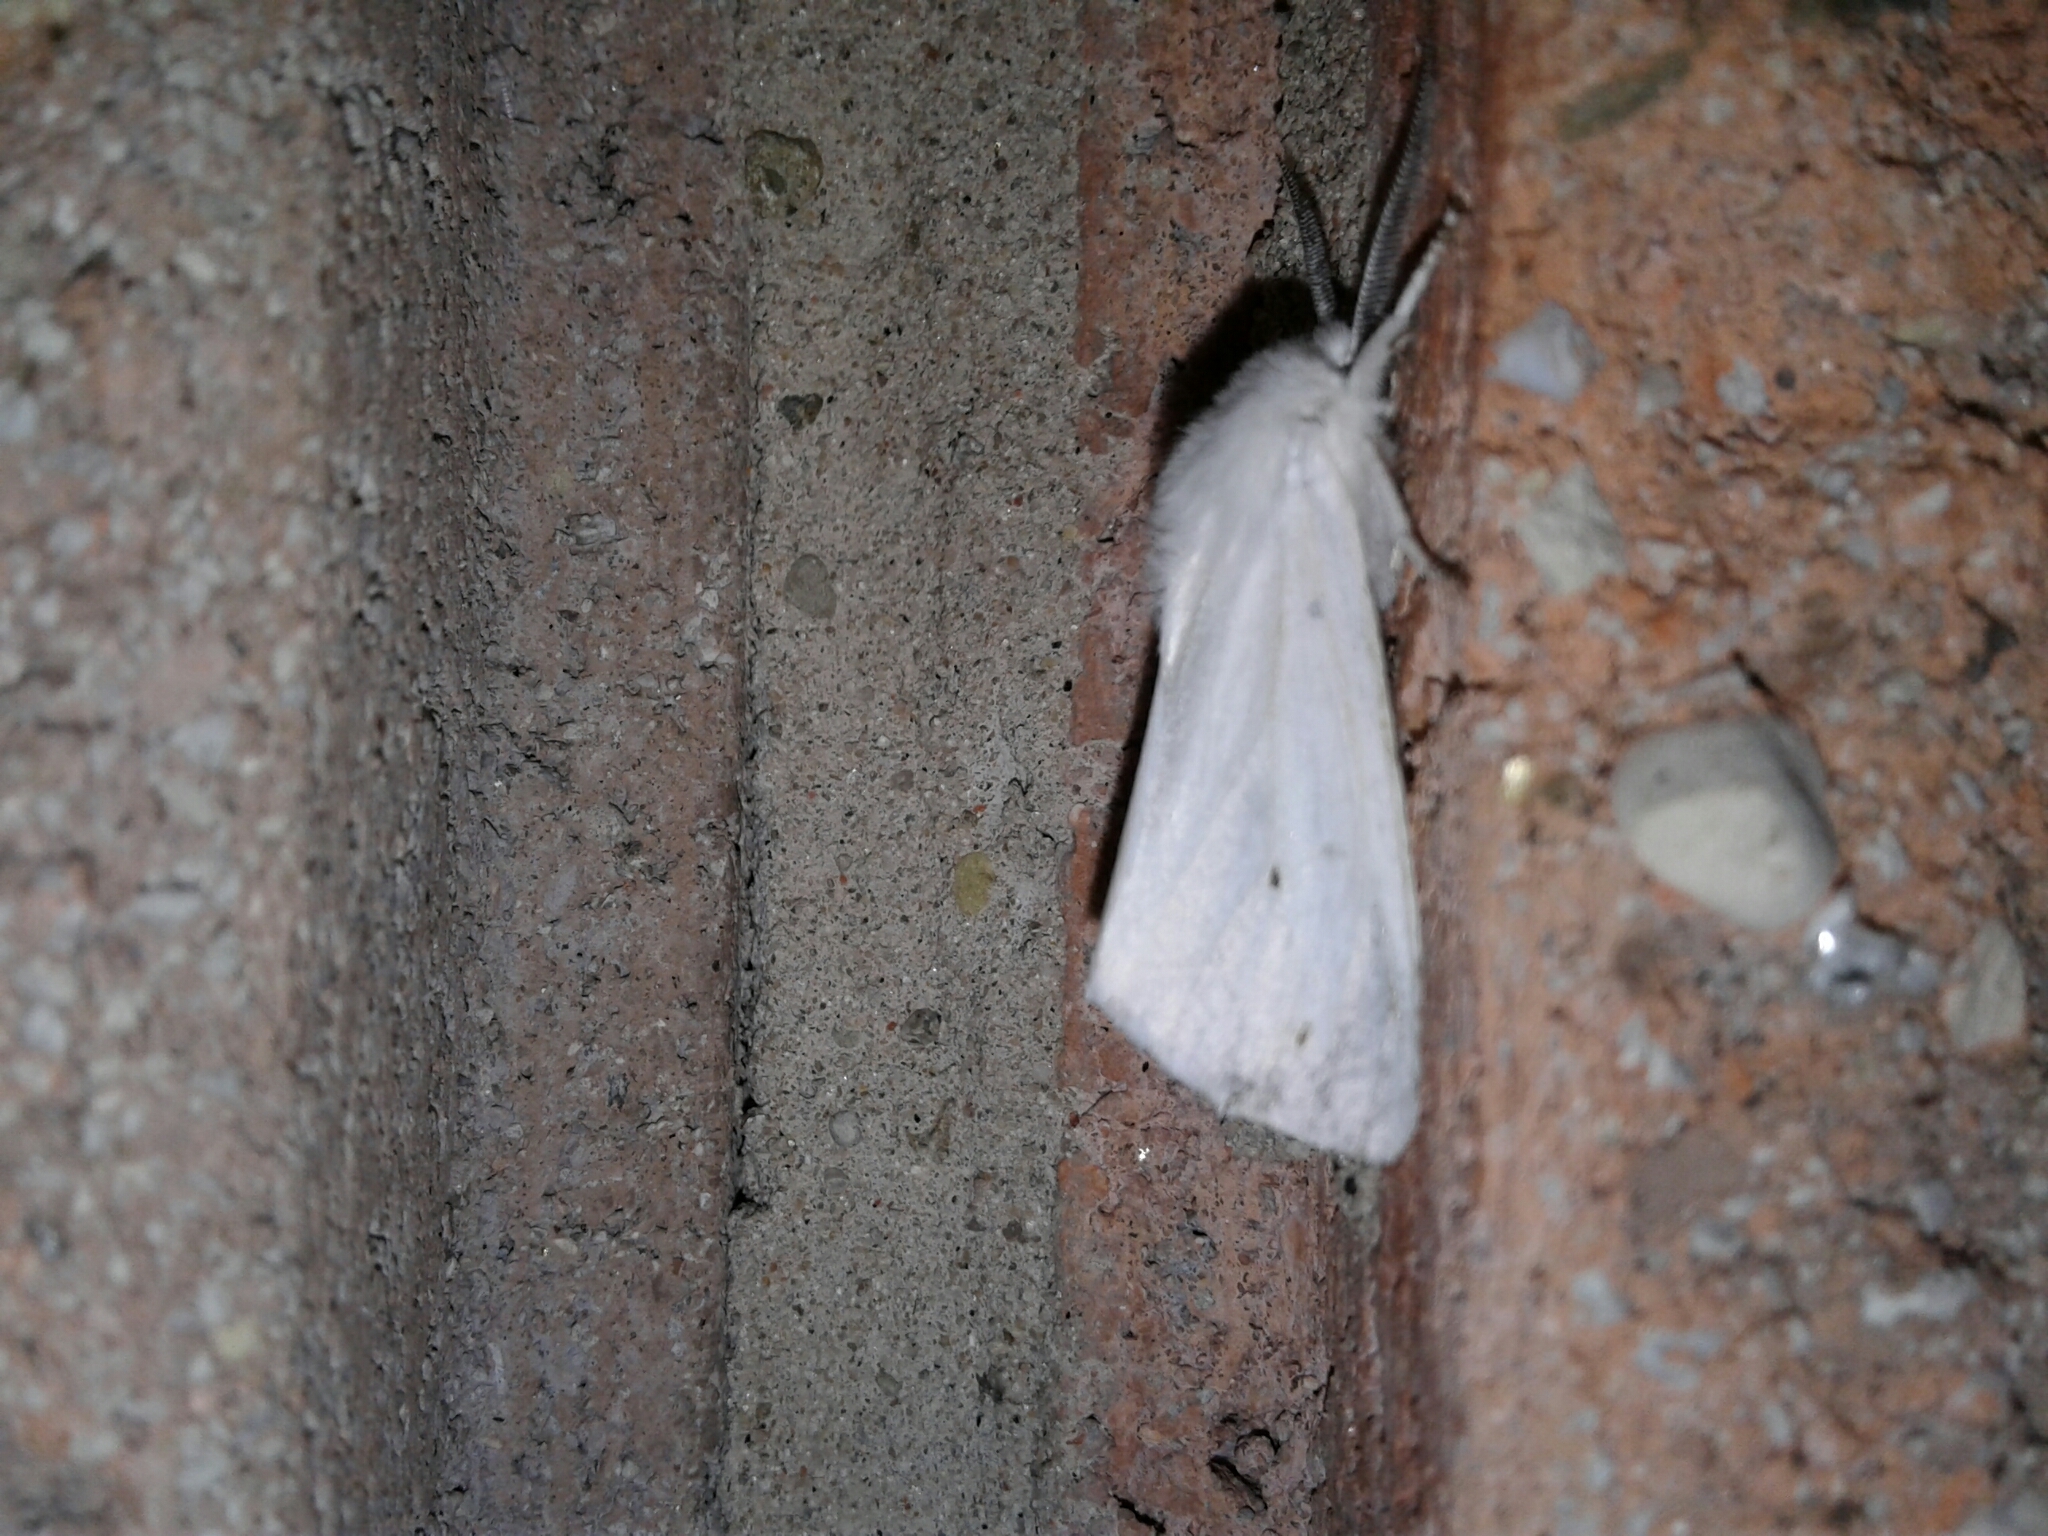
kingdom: Animalia
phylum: Arthropoda
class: Insecta
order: Lepidoptera
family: Erebidae
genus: Spilosoma
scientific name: Spilosoma virginica
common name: Virginia tiger moth
